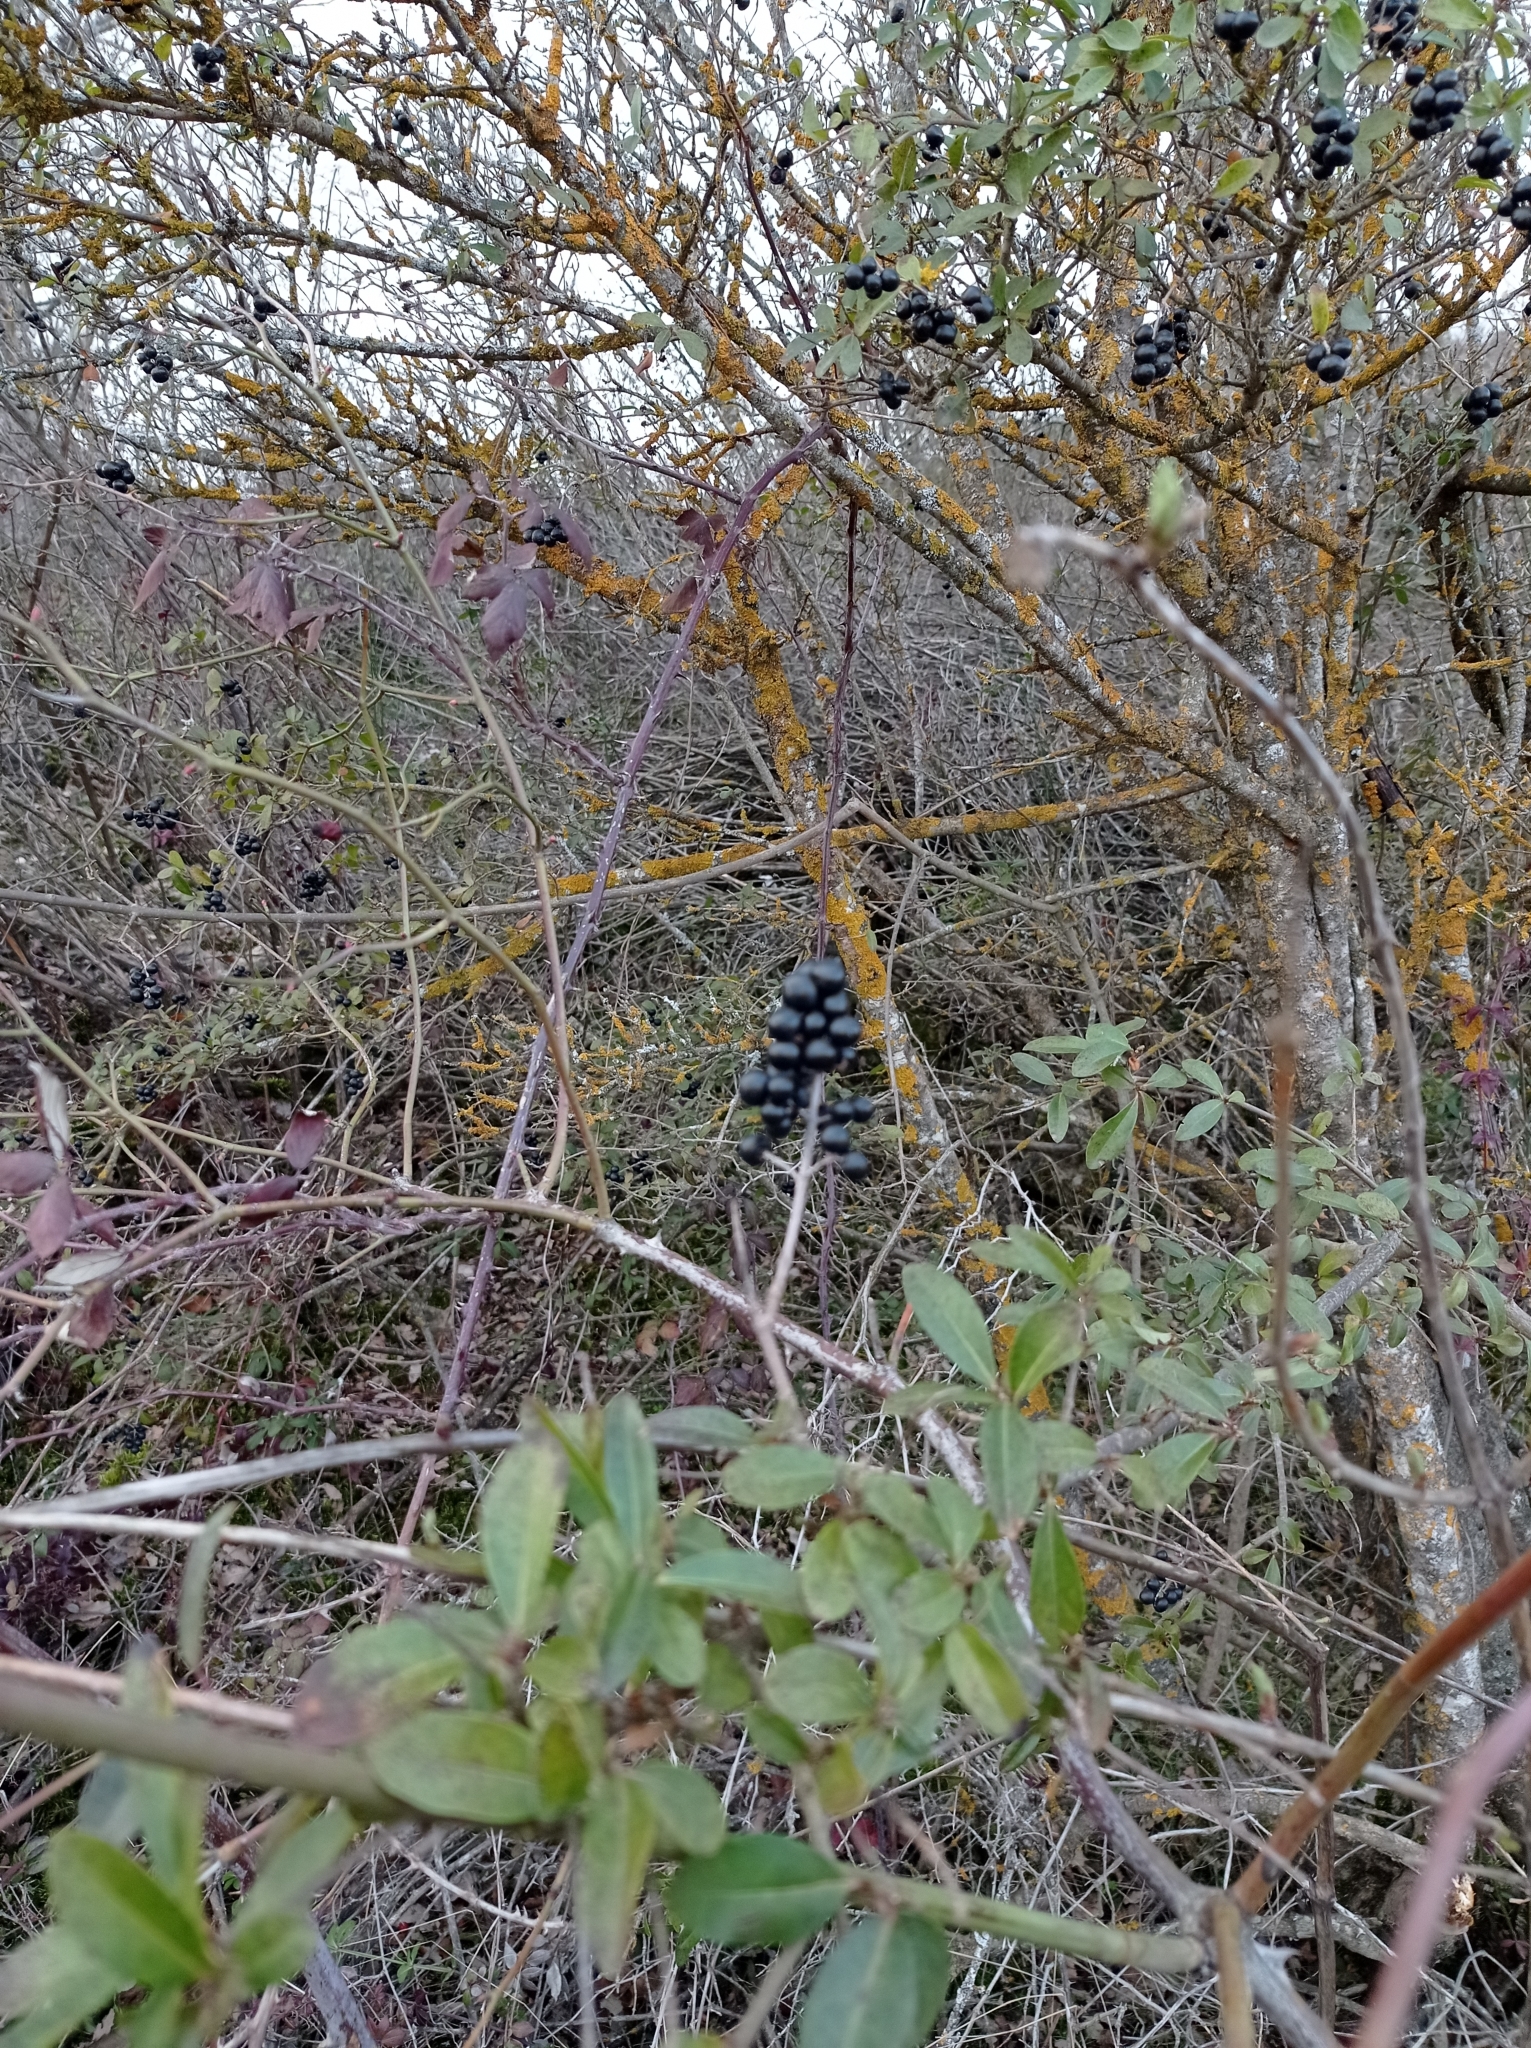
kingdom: Plantae
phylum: Tracheophyta
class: Magnoliopsida
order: Lamiales
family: Oleaceae
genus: Ligustrum
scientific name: Ligustrum vulgare
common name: Wild privet
